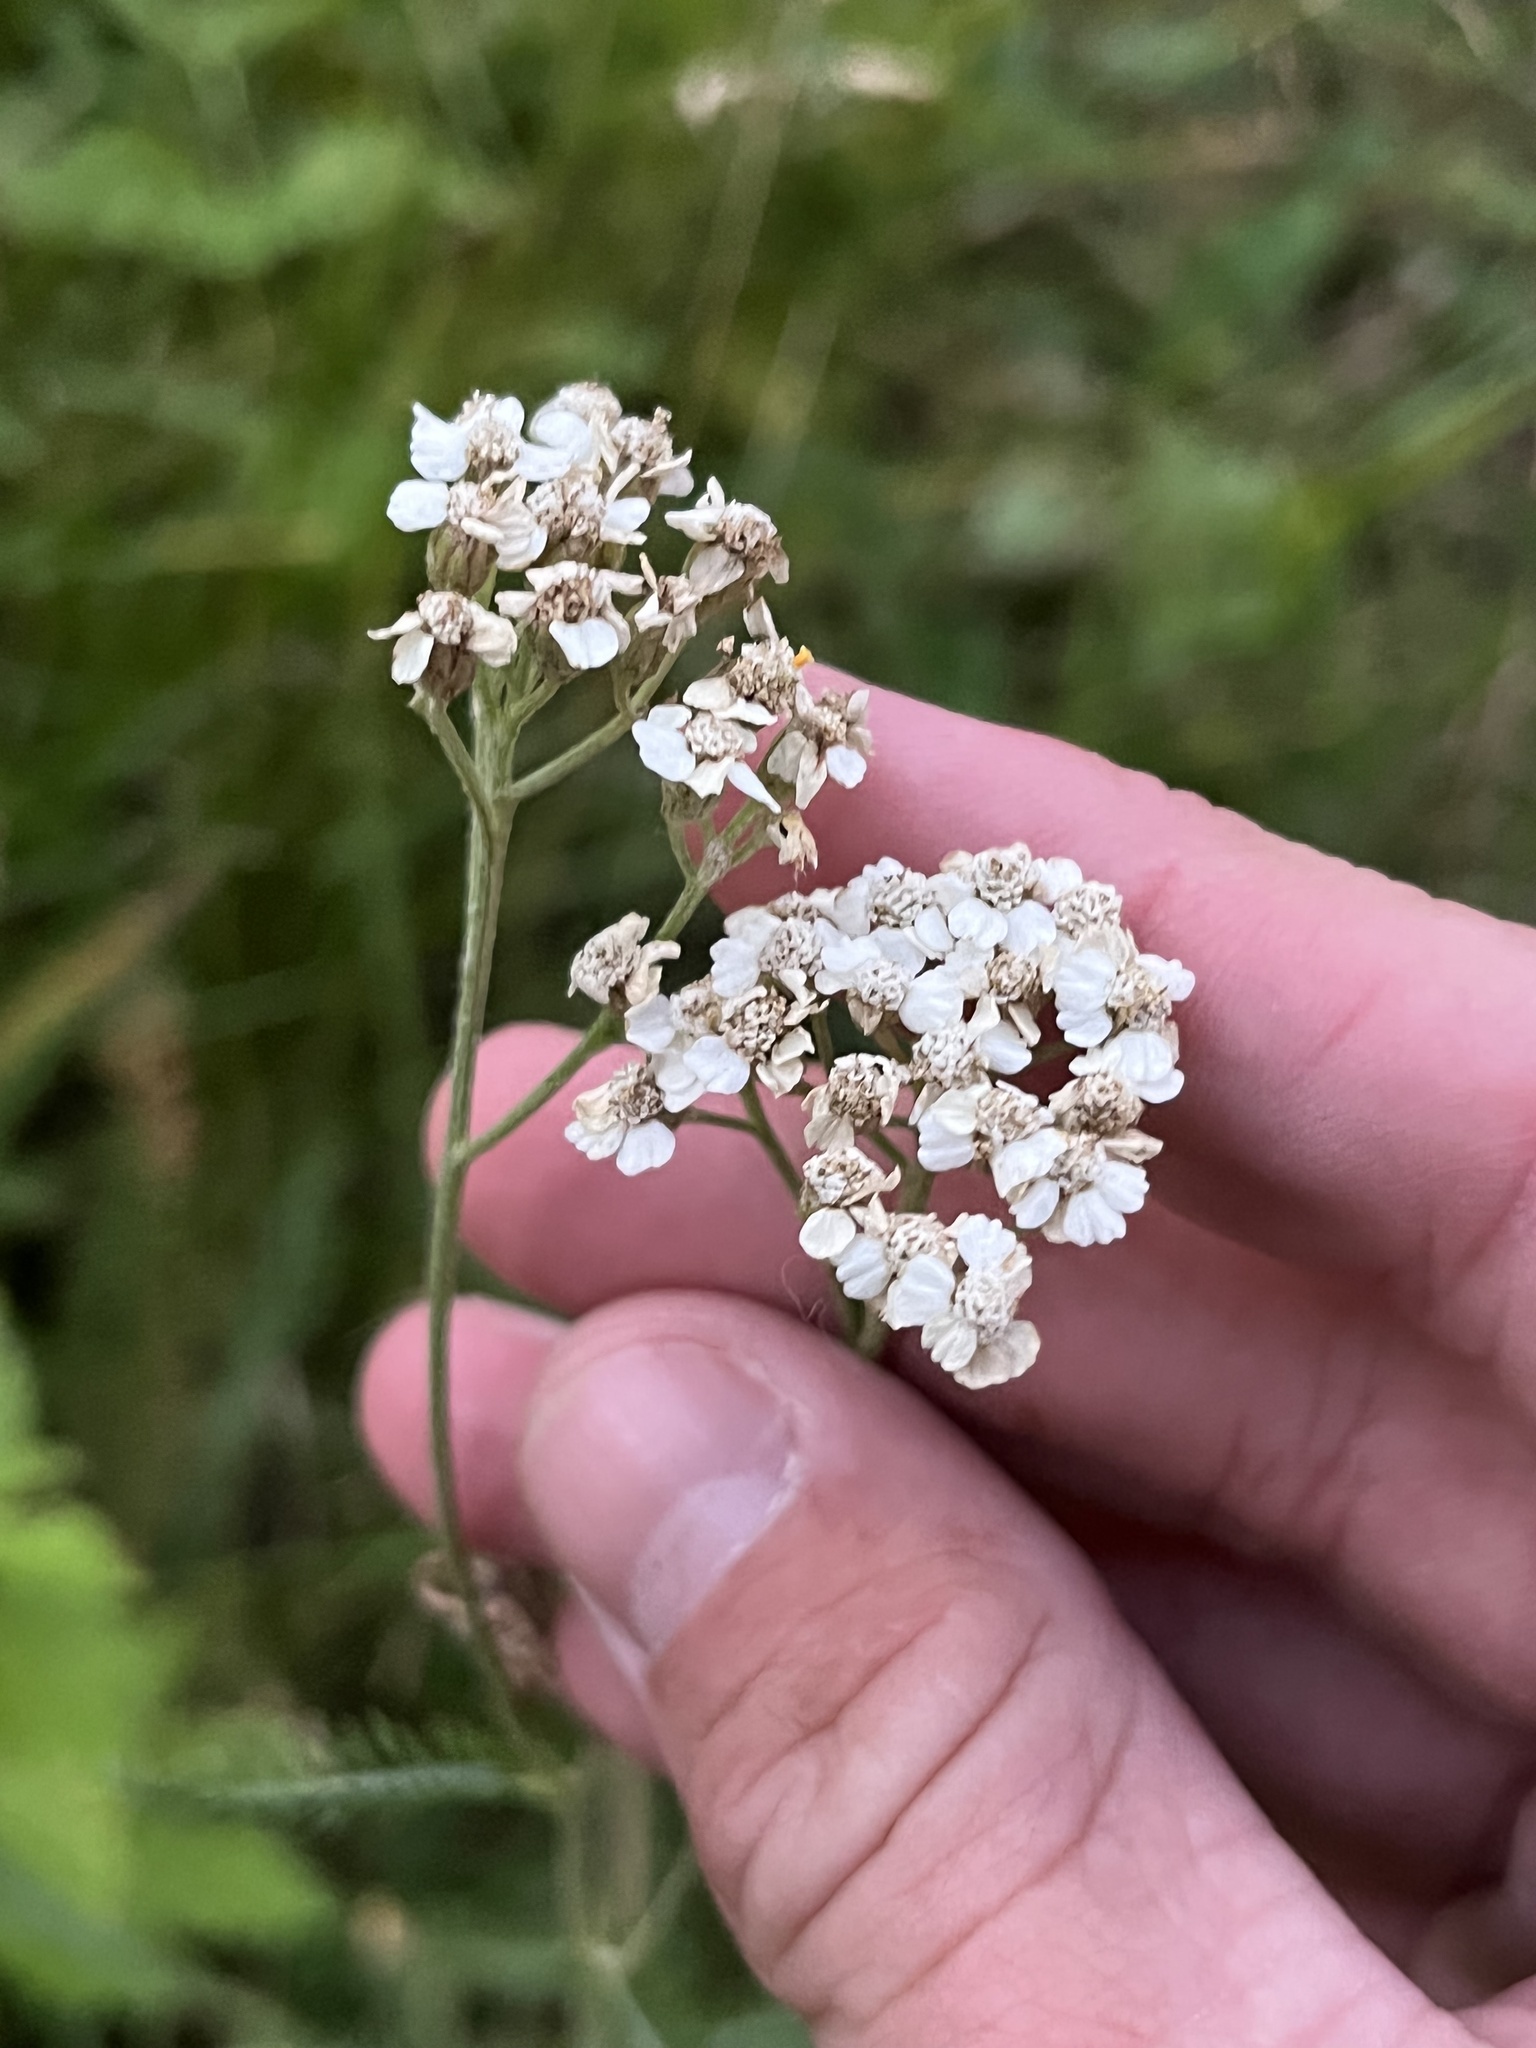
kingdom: Plantae
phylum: Tracheophyta
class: Magnoliopsida
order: Asterales
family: Asteraceae
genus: Achillea
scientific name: Achillea millefolium
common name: Yarrow
